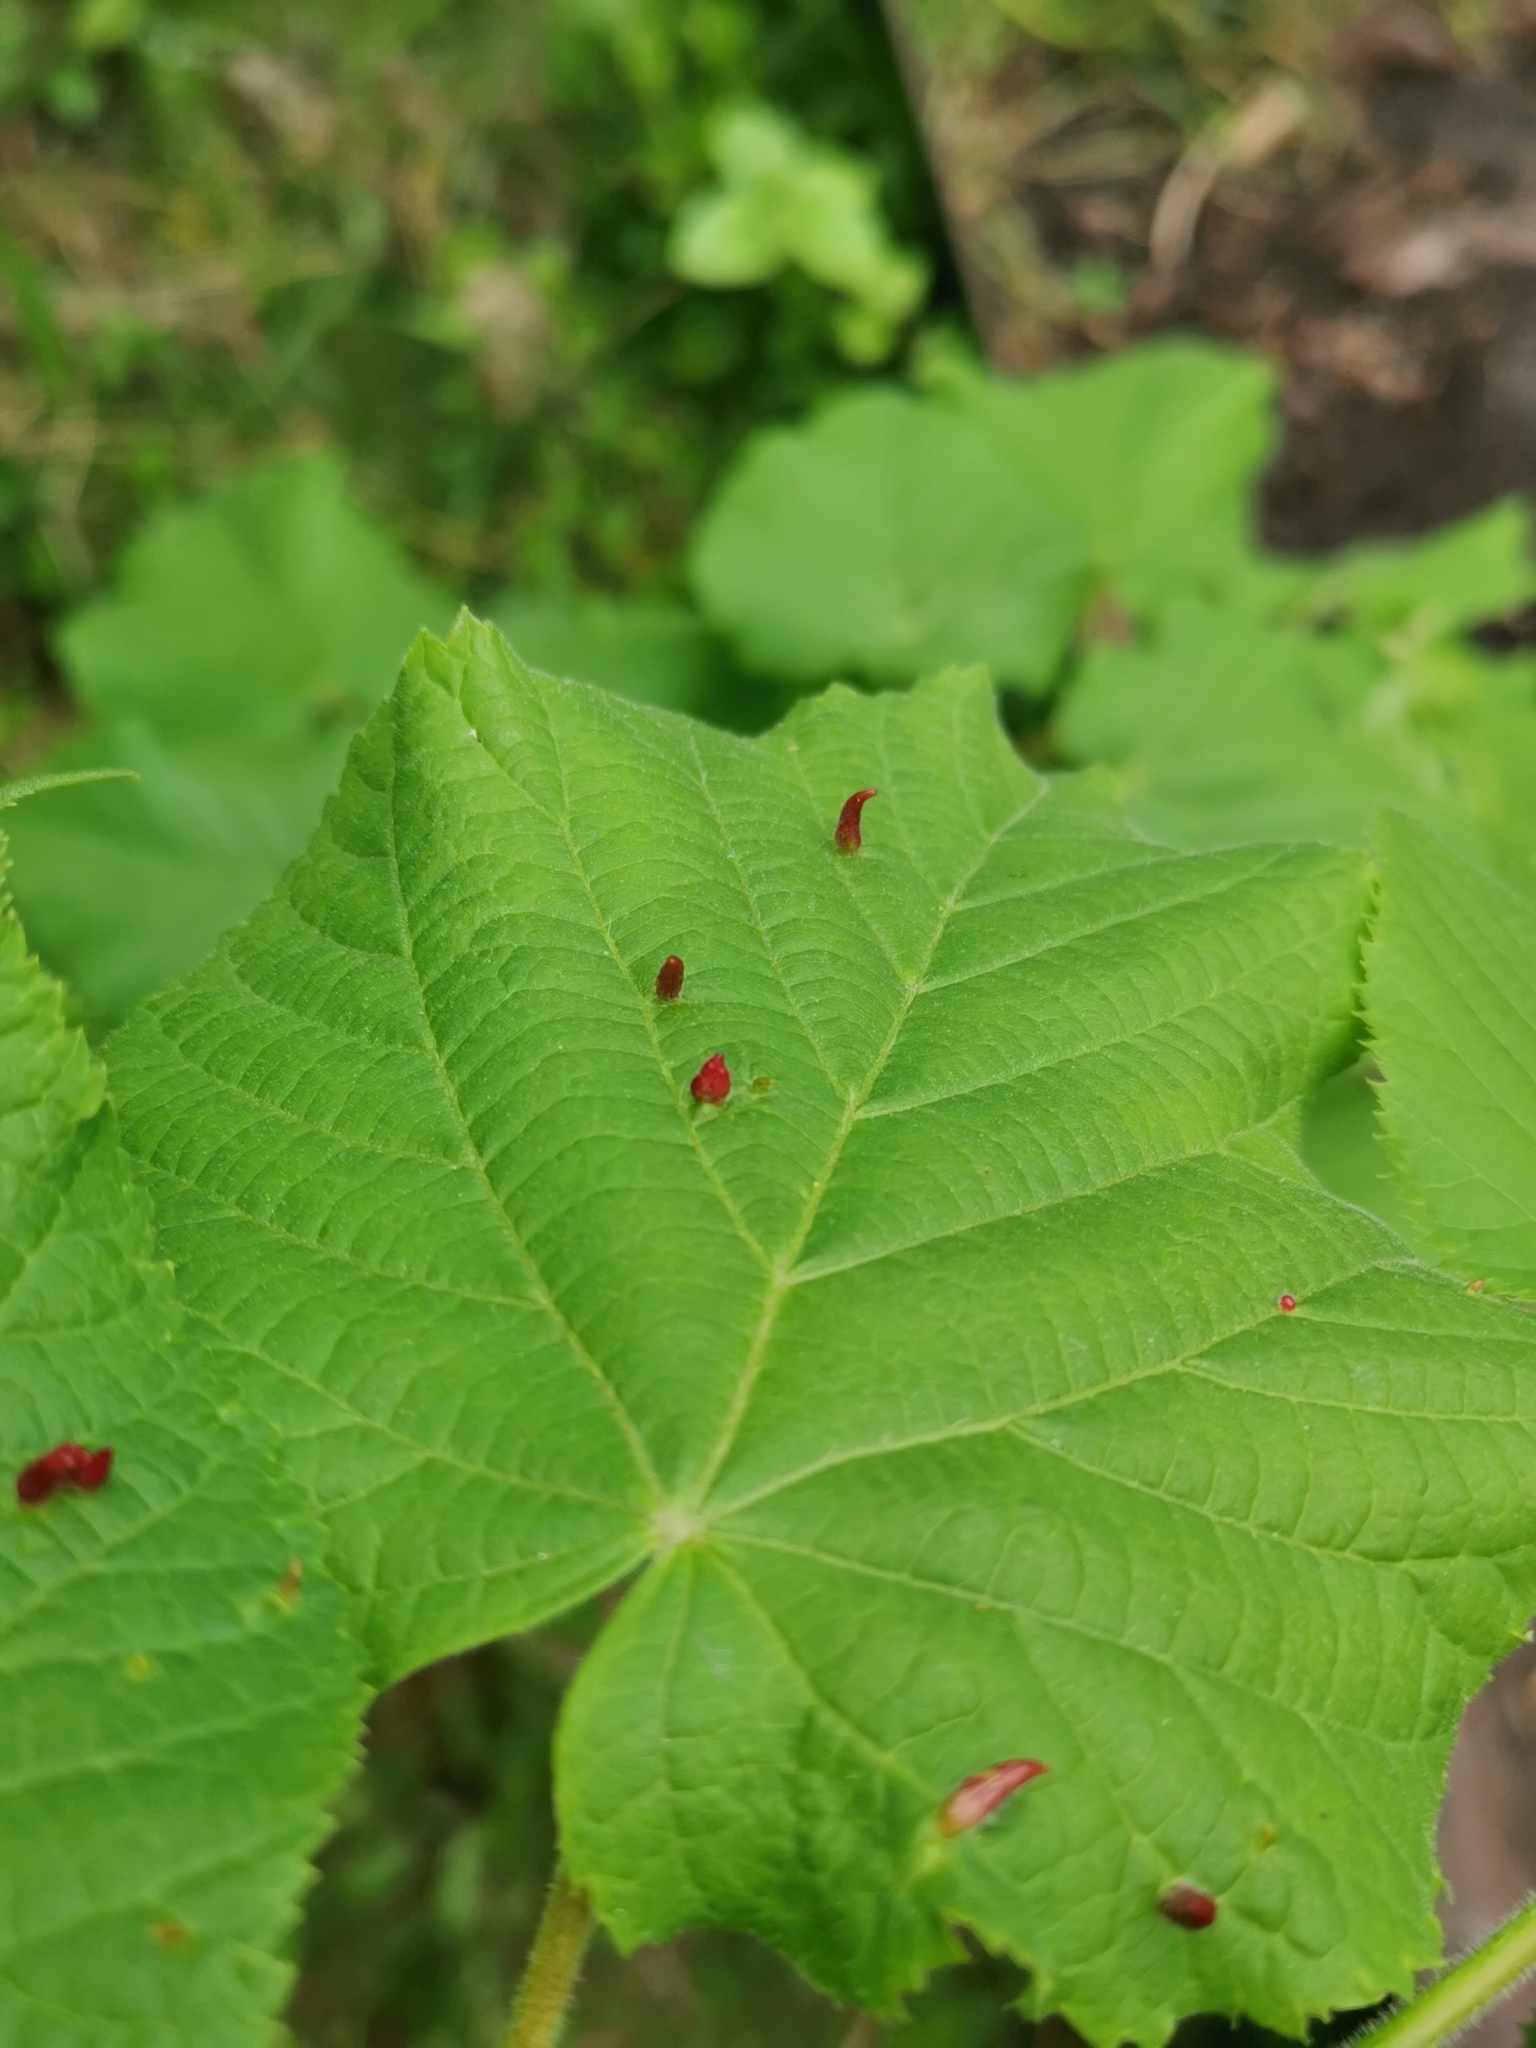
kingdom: Animalia
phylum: Arthropoda
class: Arachnida
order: Trombidiformes
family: Eriophyidae
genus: Eriophyes
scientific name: Eriophyes tiliae
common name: Red nail gall mite
